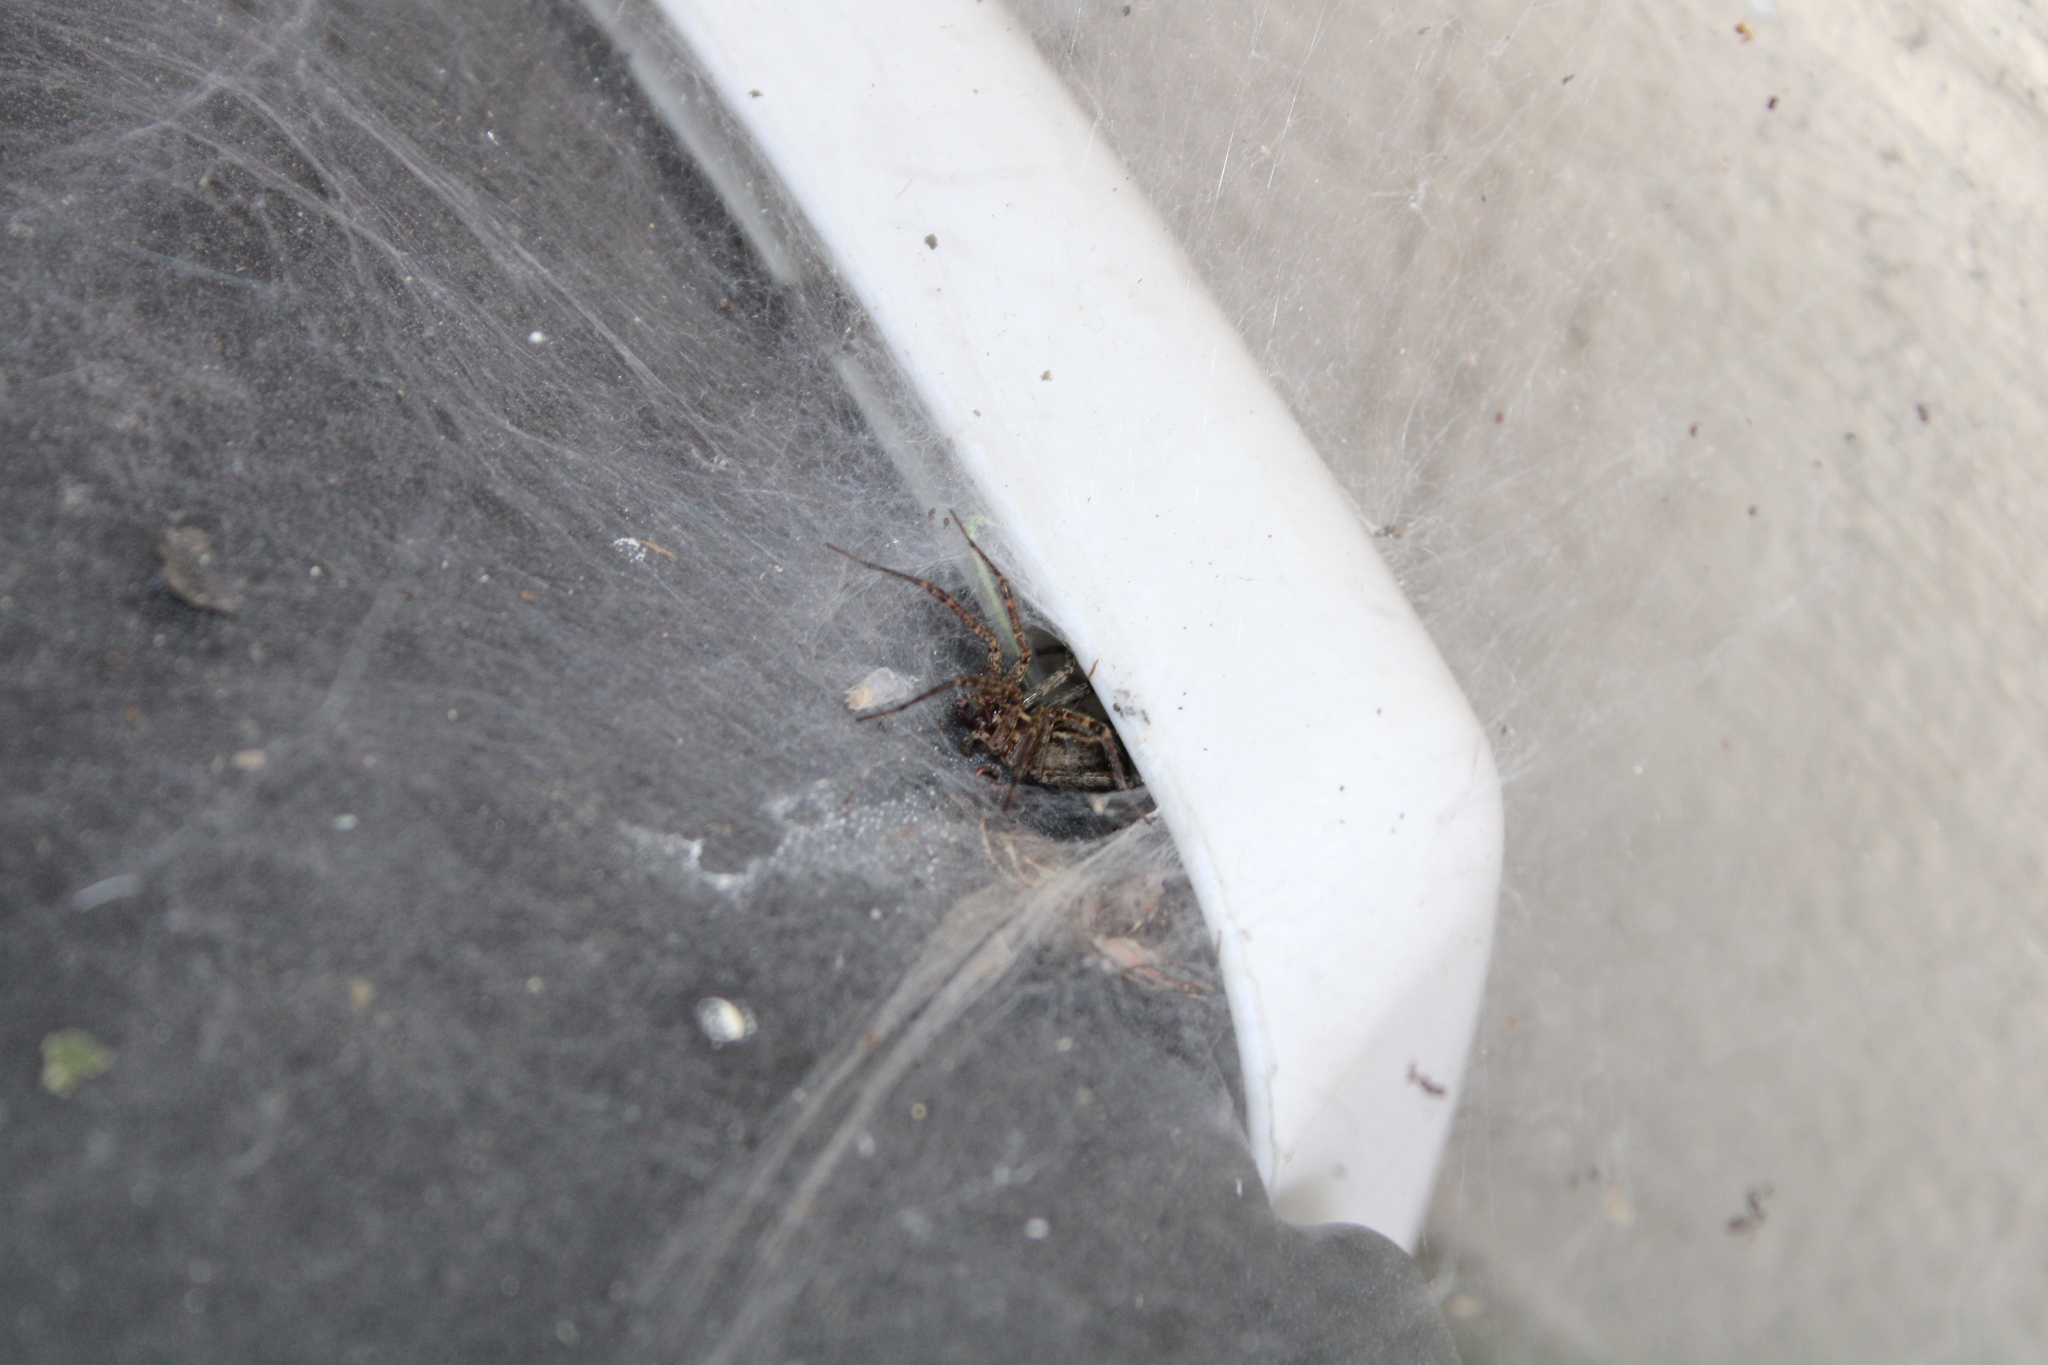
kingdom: Animalia
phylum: Arthropoda
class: Arachnida
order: Araneae
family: Agelenidae
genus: Agelenopsis
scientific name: Agelenopsis
